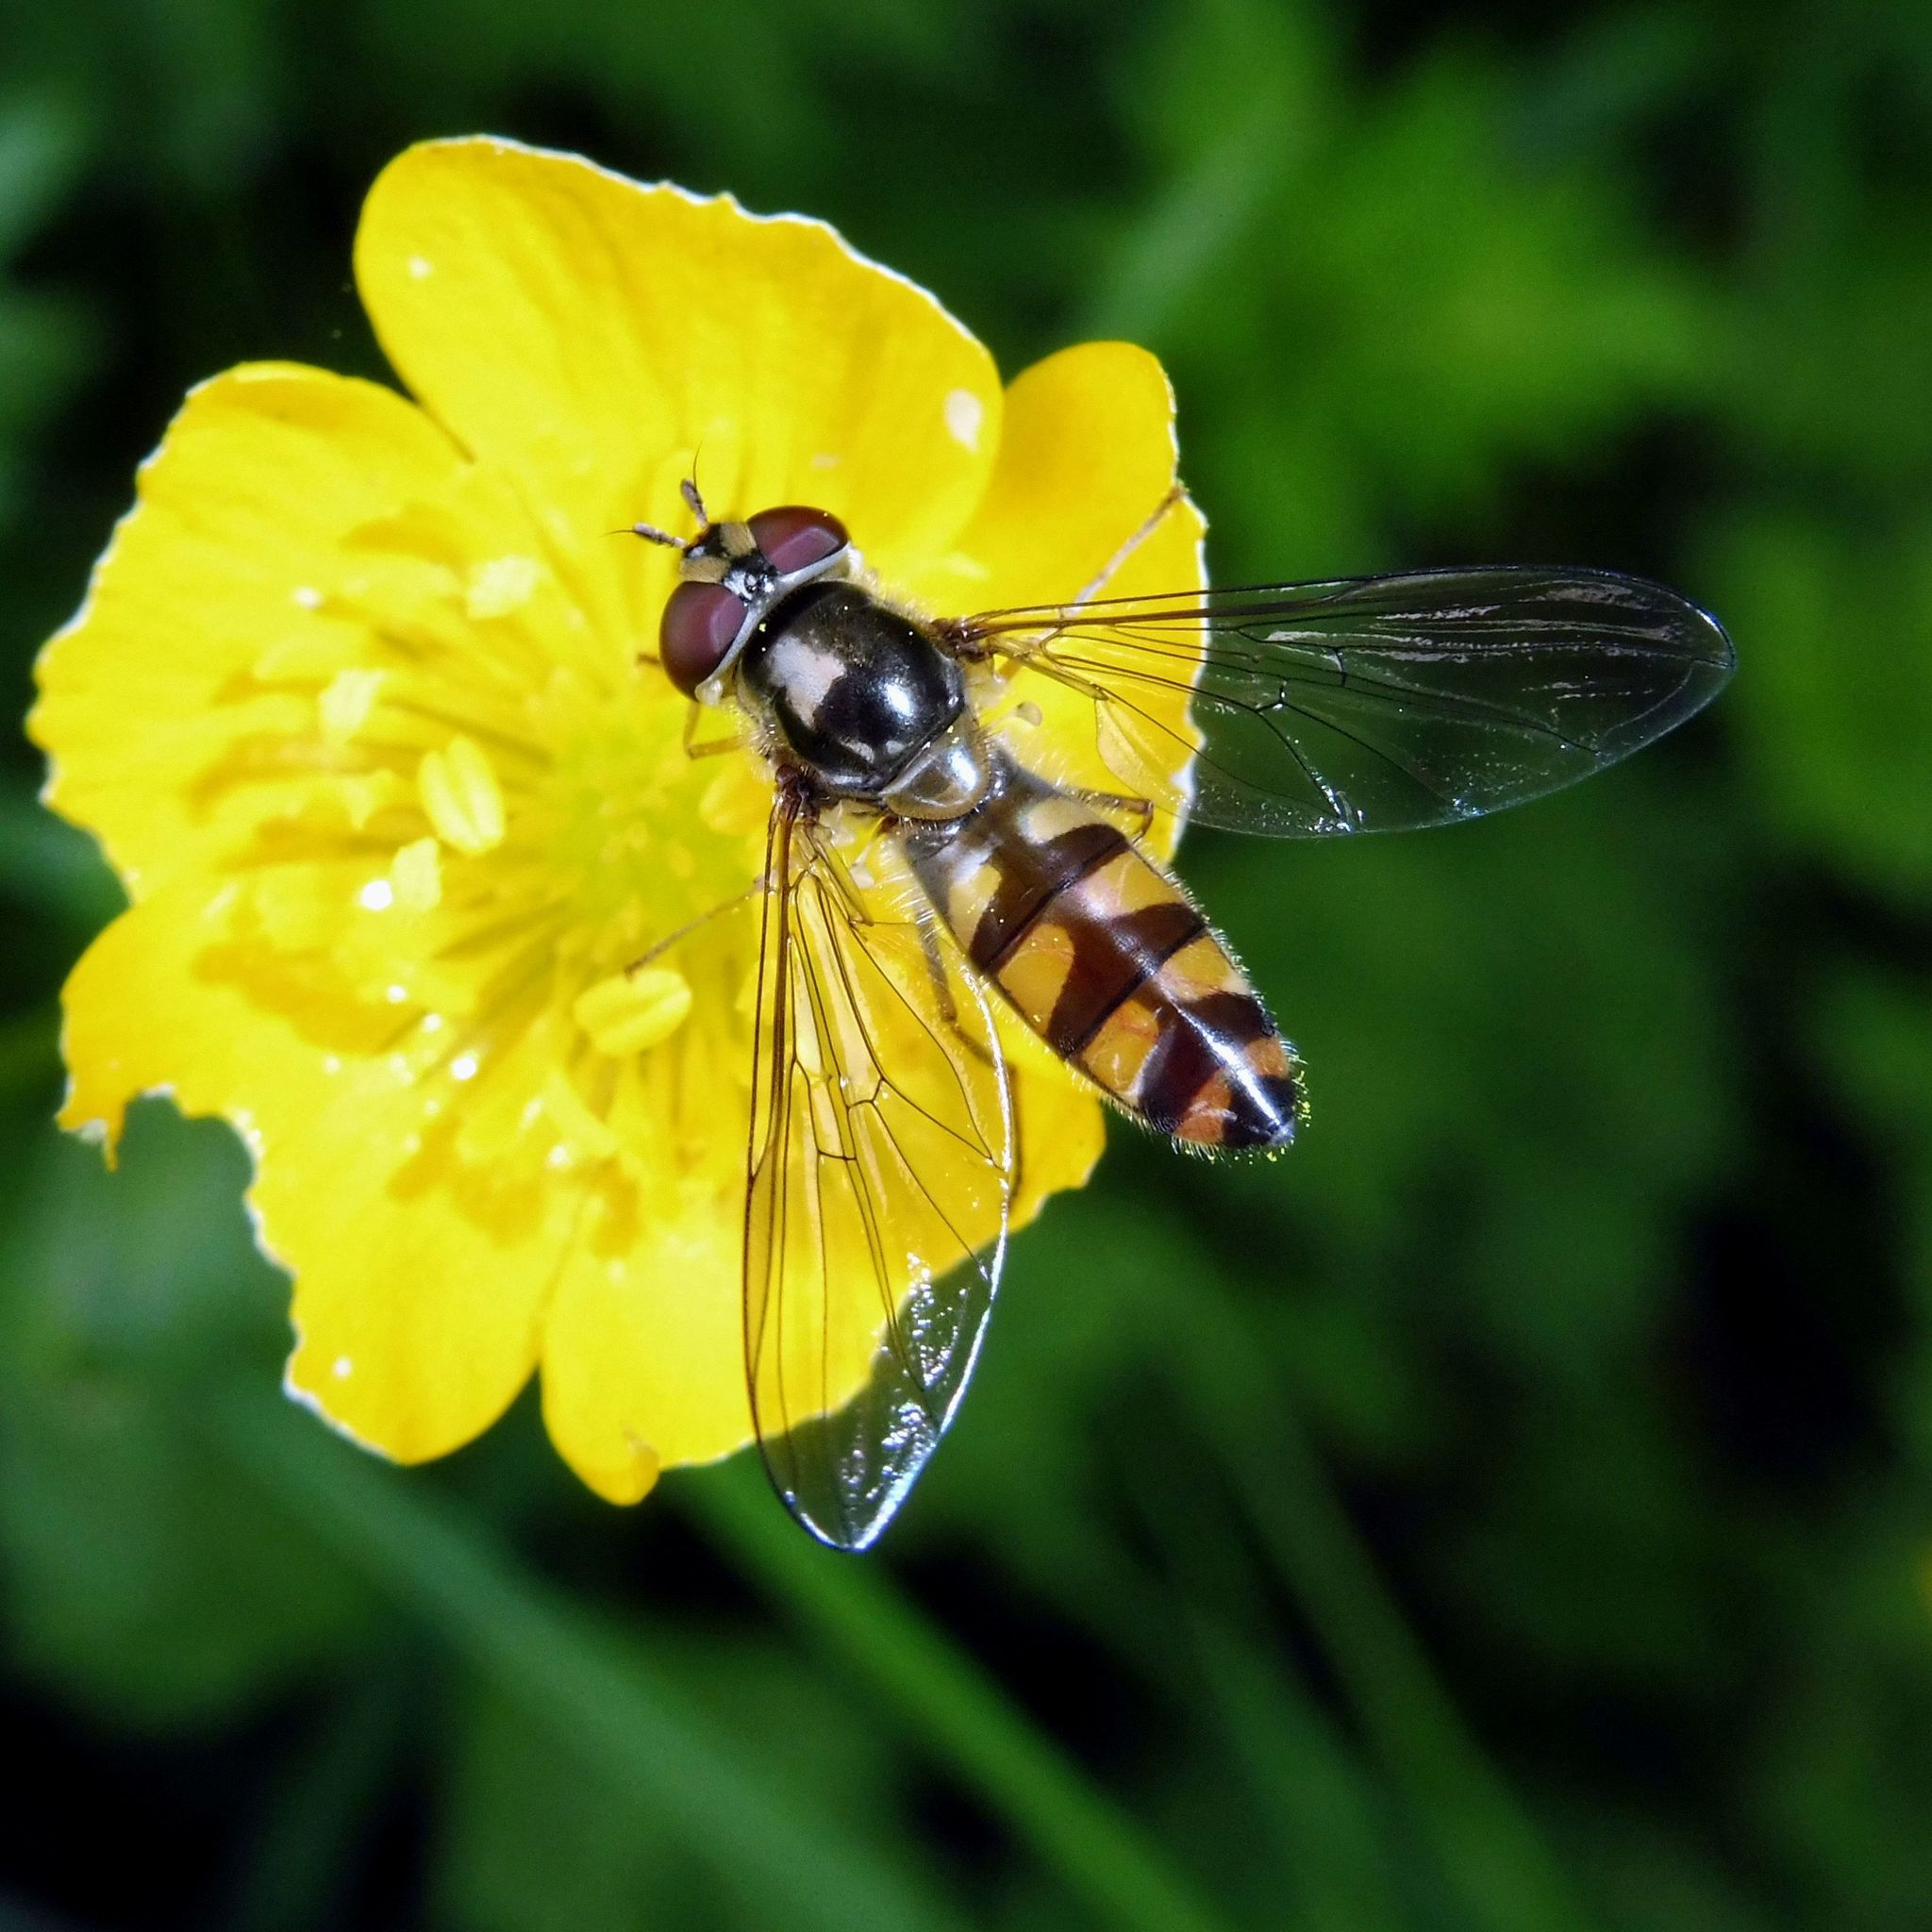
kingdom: Animalia
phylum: Arthropoda
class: Insecta
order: Diptera
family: Syrphidae
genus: Meliscaeva
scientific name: Meliscaeva auricollis
